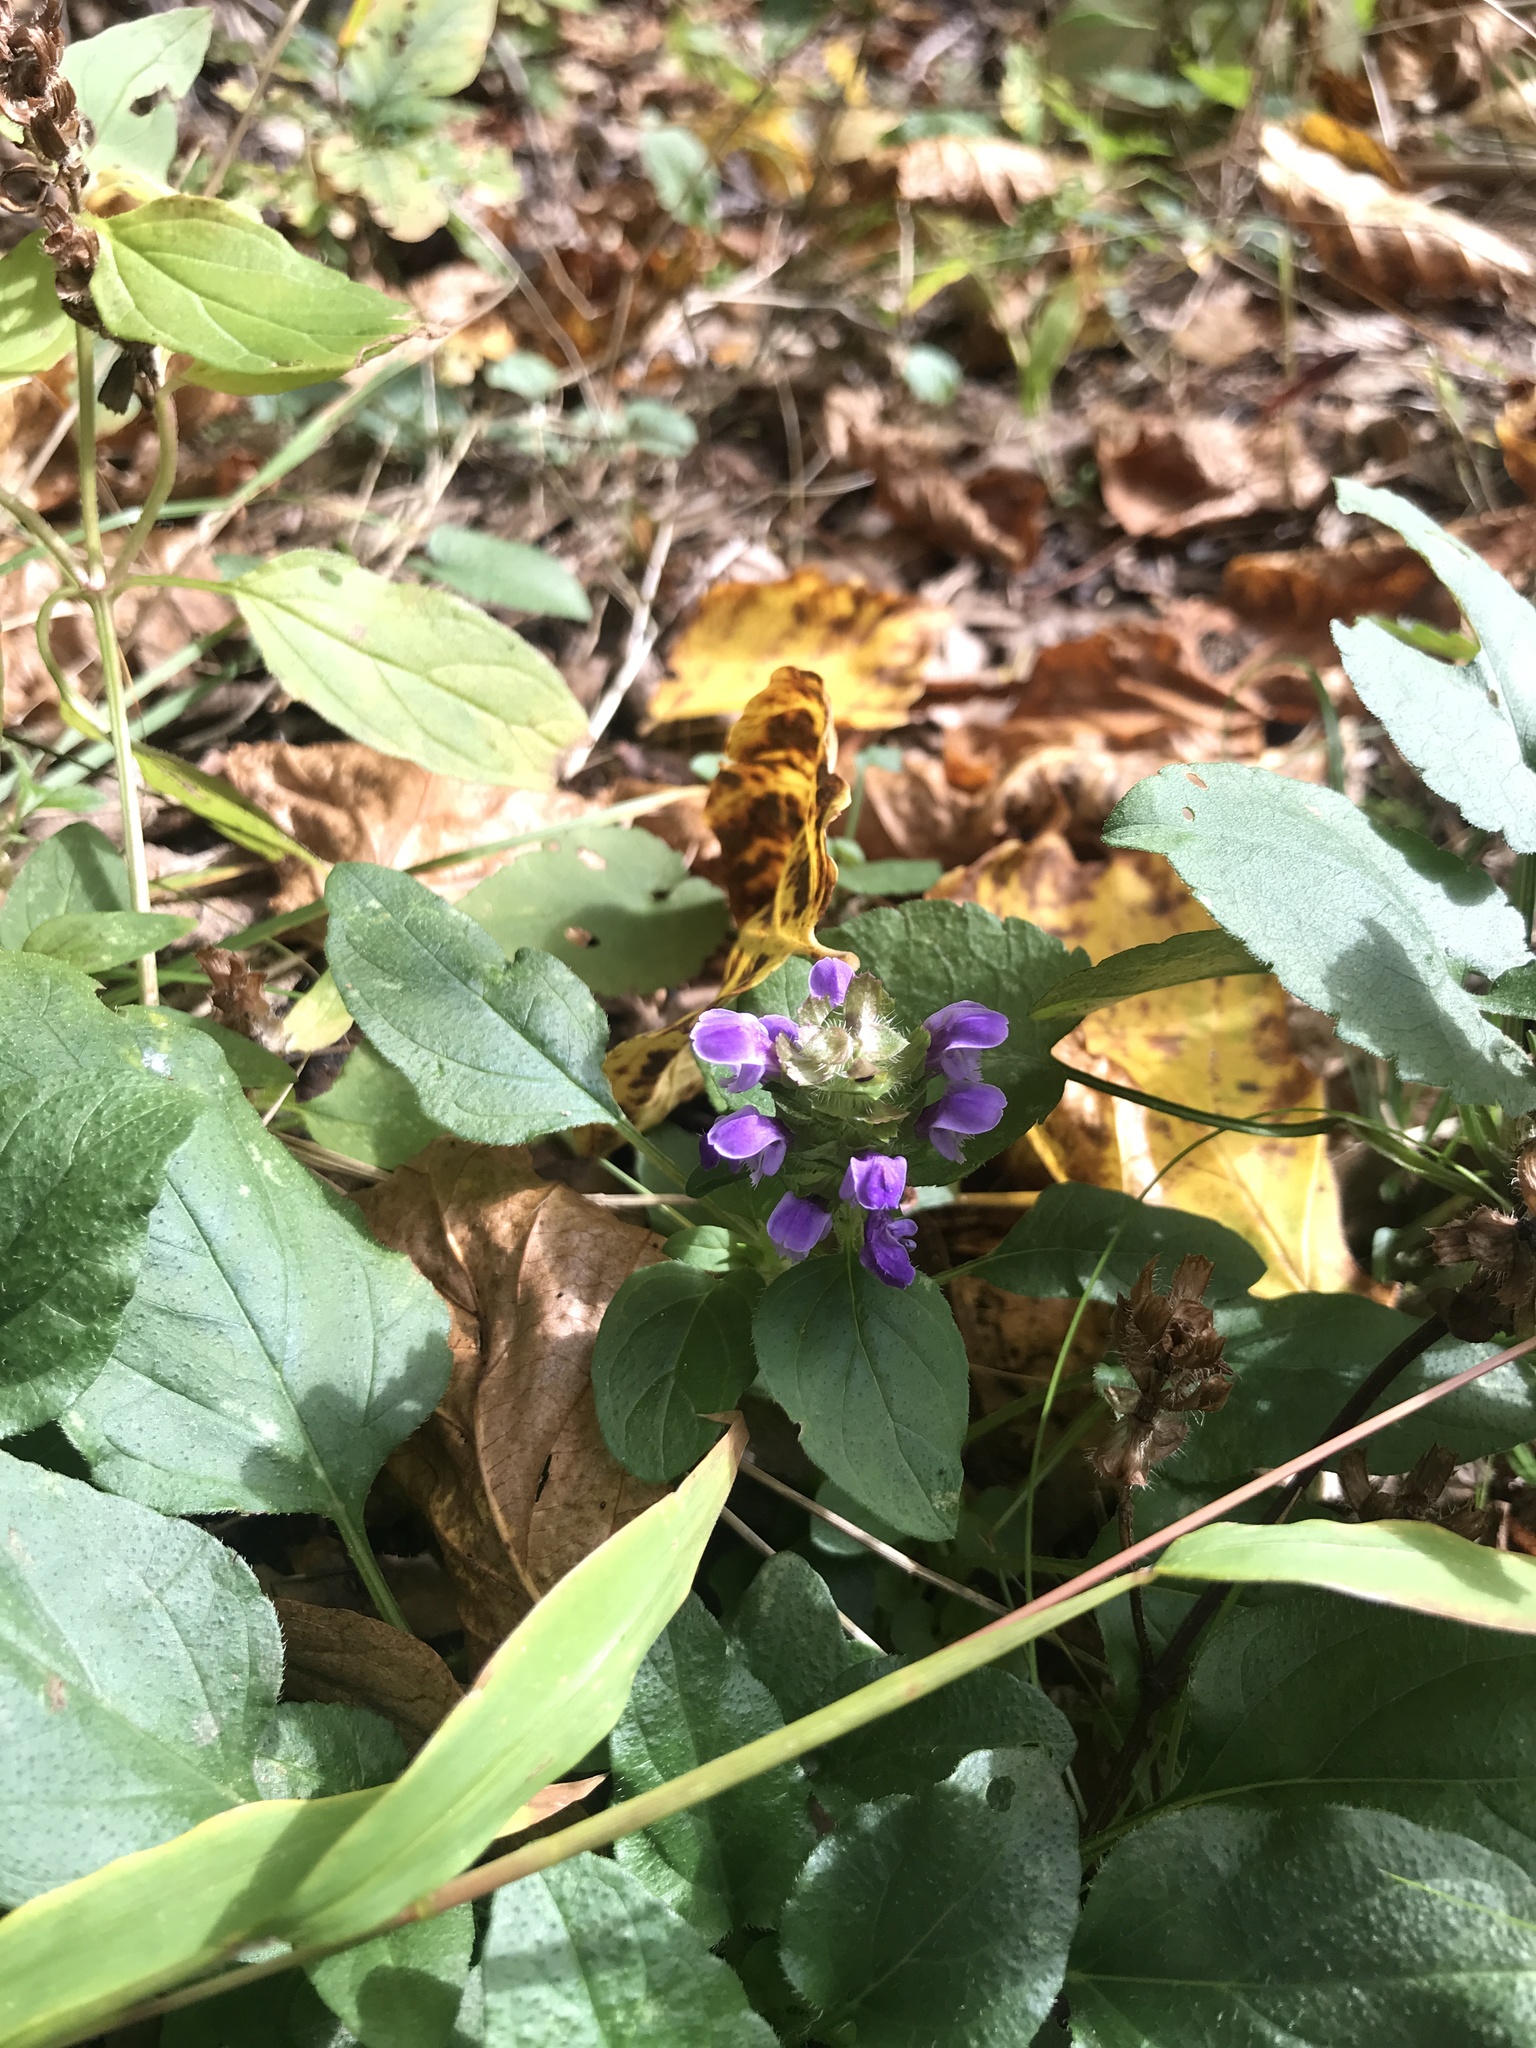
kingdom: Plantae
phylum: Tracheophyta
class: Magnoliopsida
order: Lamiales
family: Lamiaceae
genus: Prunella
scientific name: Prunella vulgaris
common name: Heal-all
